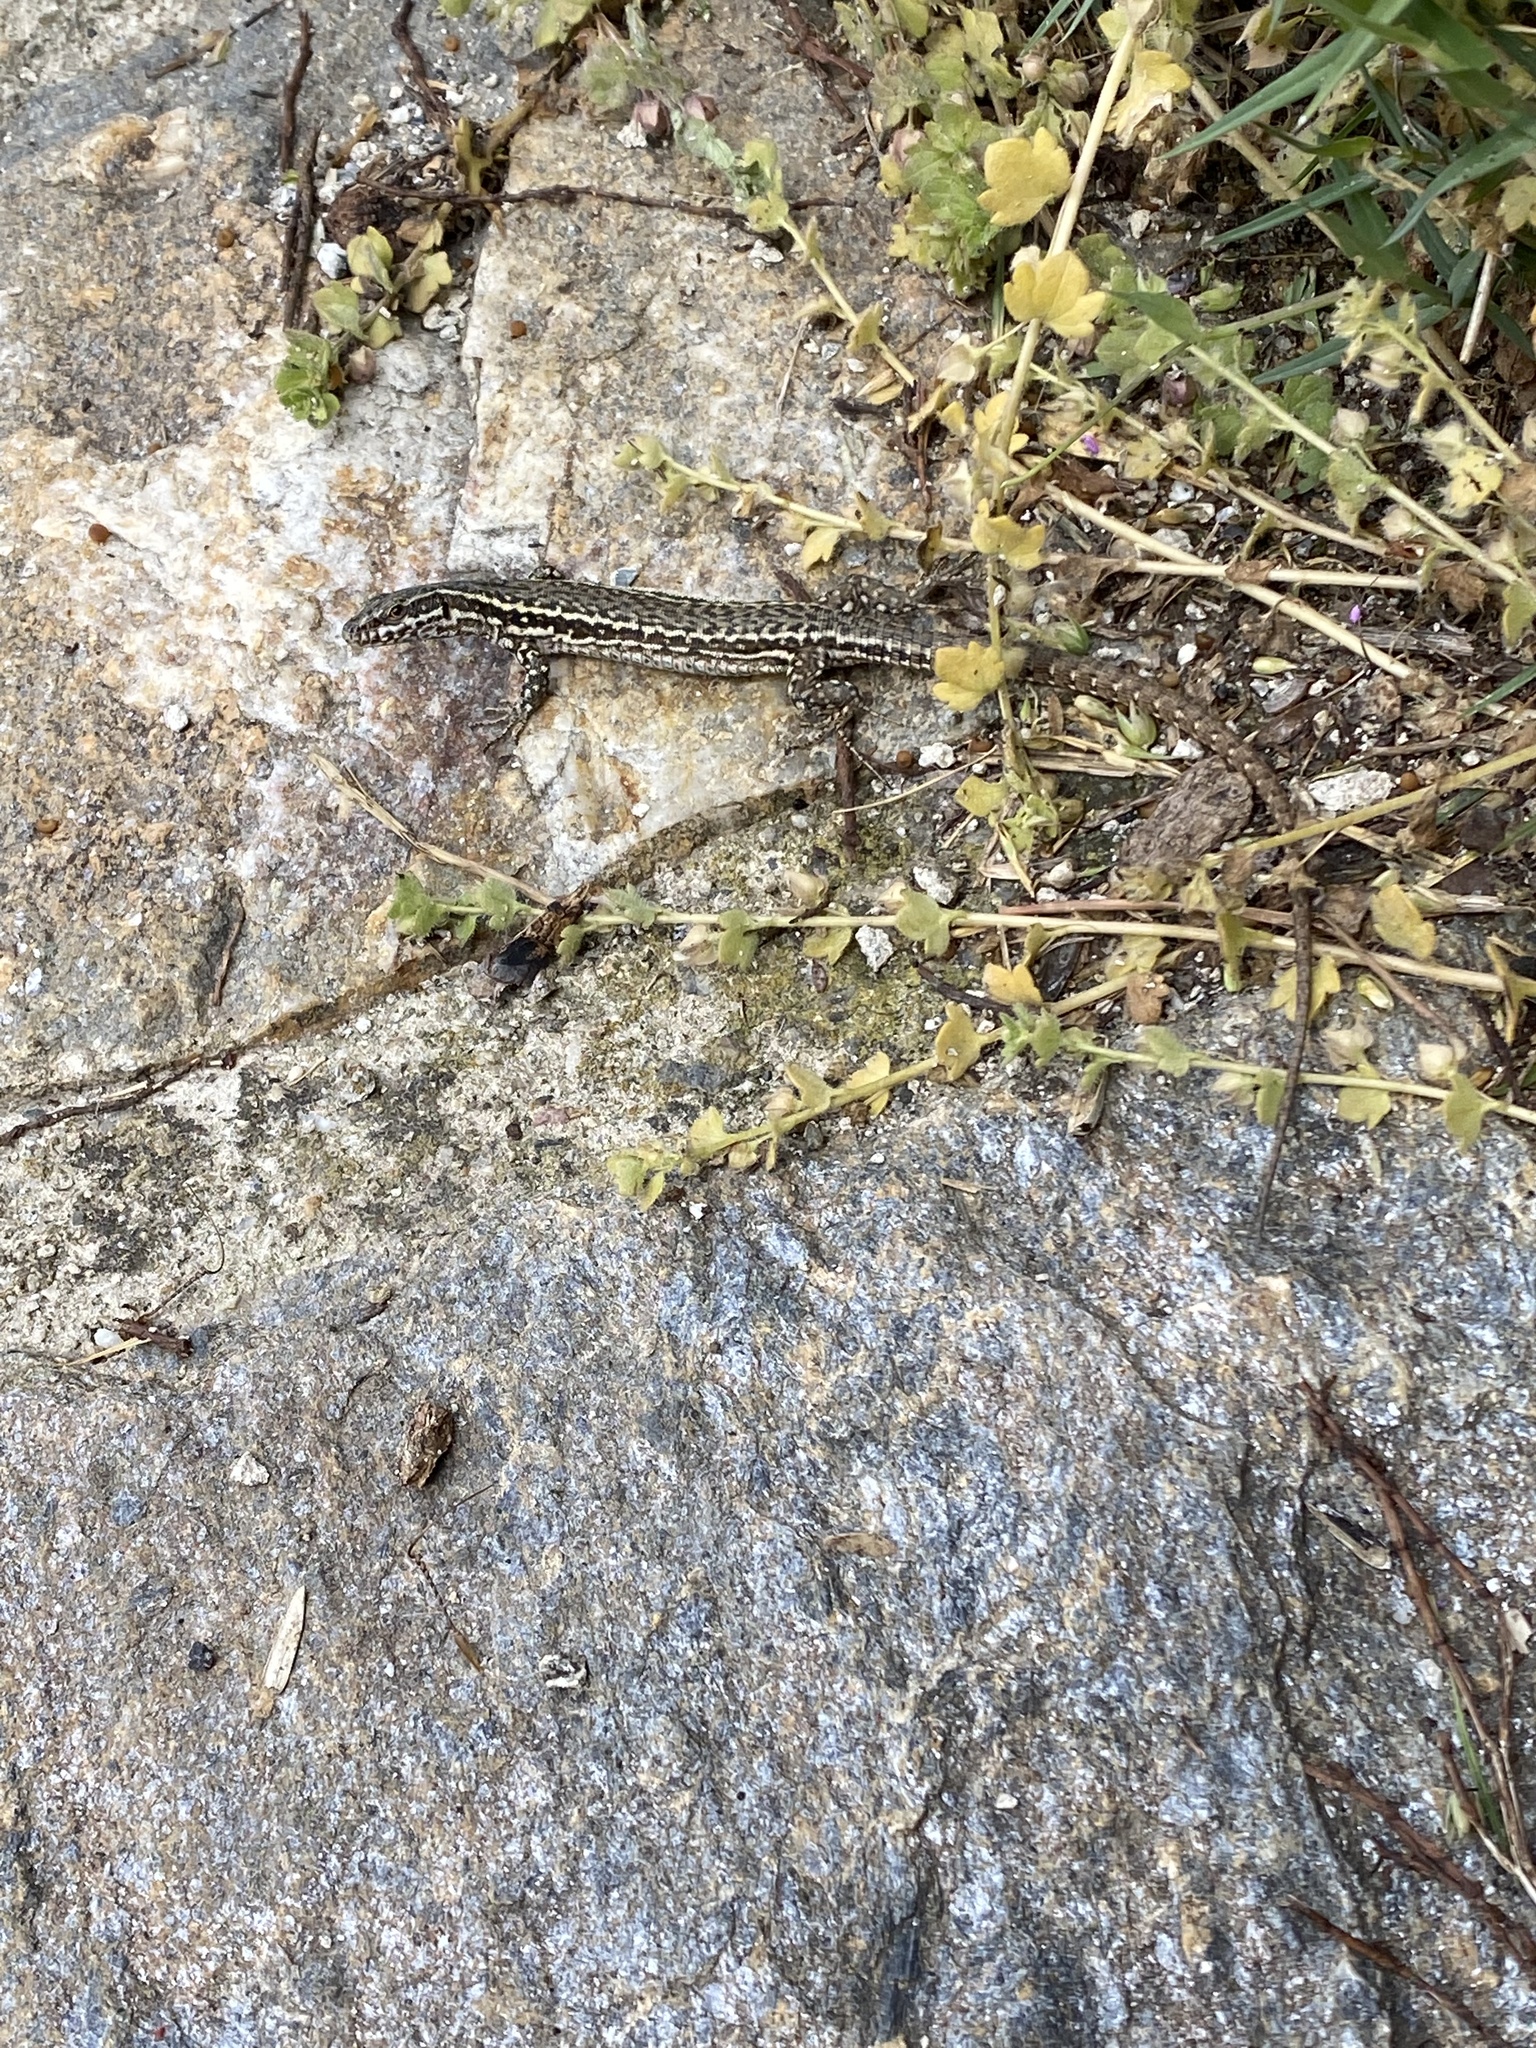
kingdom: Animalia
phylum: Chordata
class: Squamata
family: Lacertidae
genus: Podarcis
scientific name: Podarcis muralis
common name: Common wall lizard
